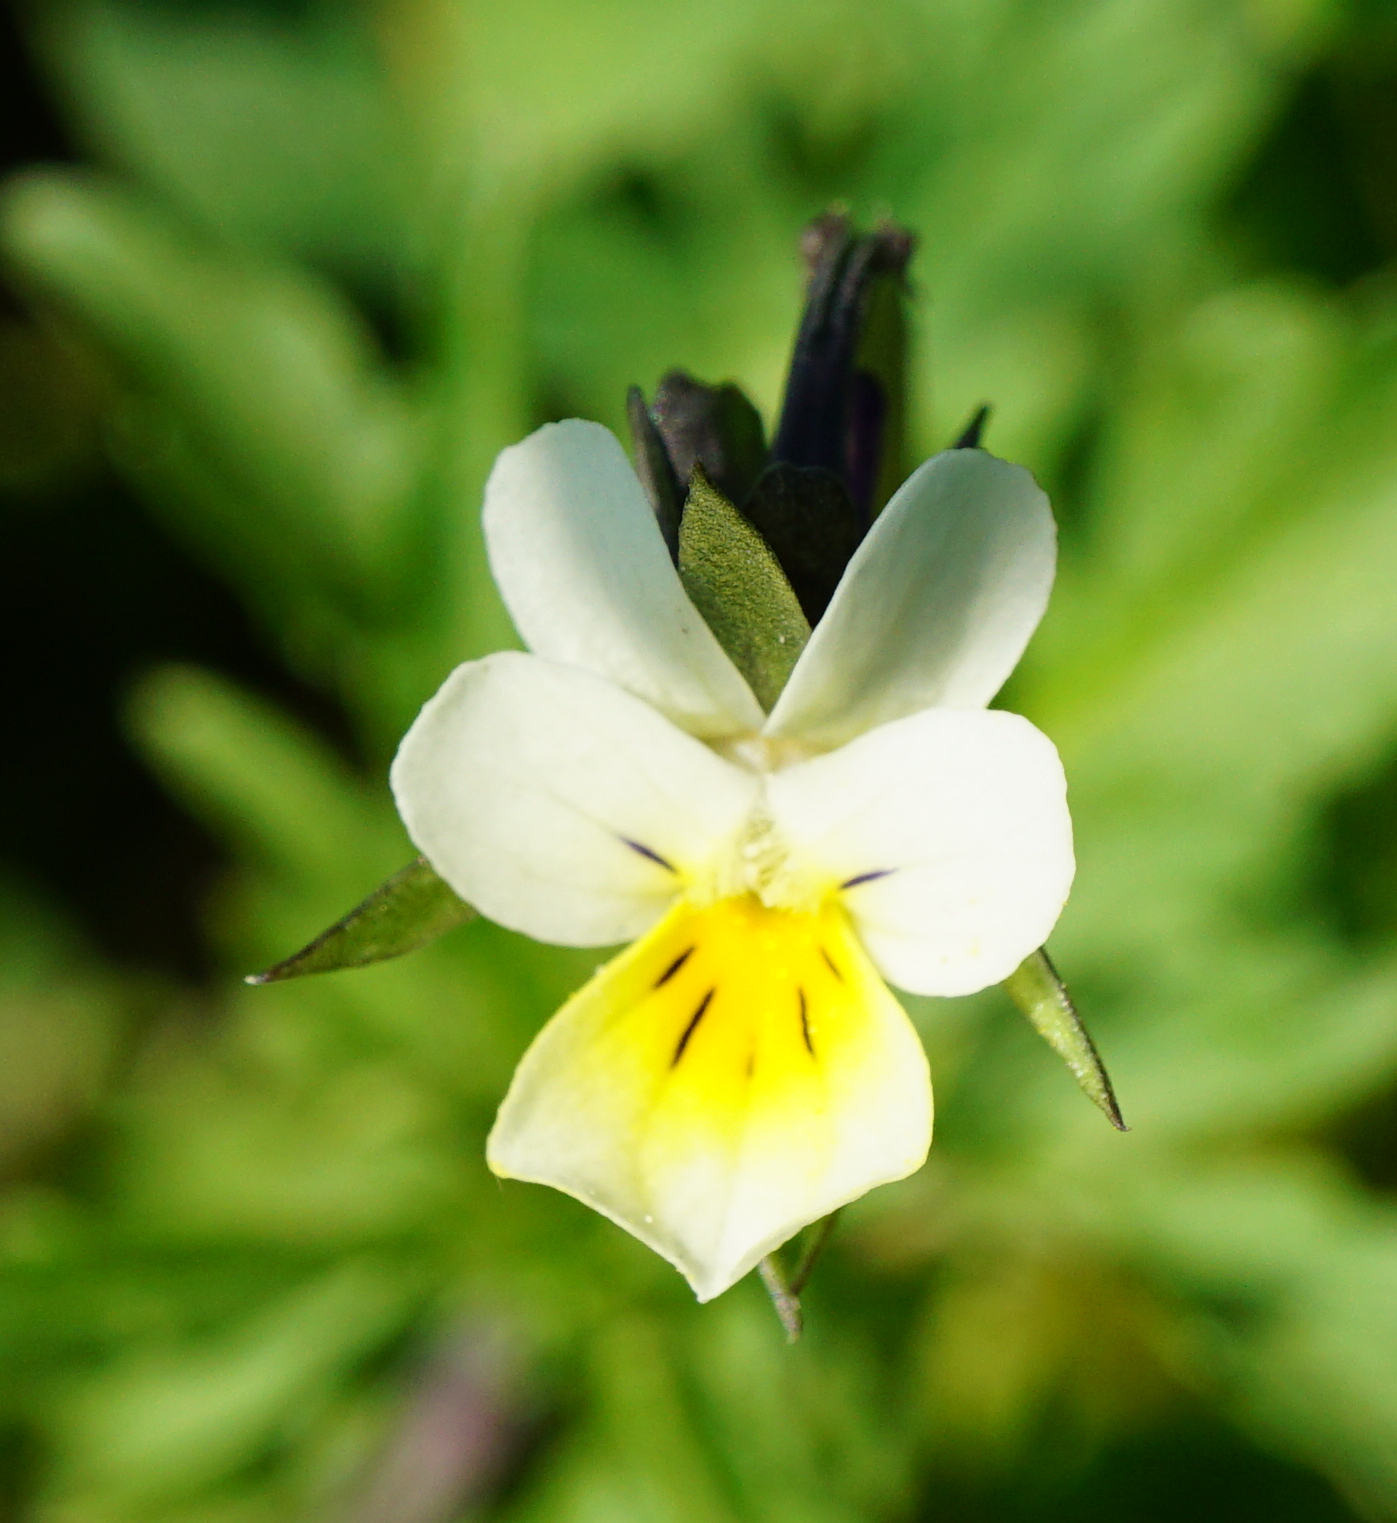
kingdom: Plantae
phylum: Tracheophyta
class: Magnoliopsida
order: Malpighiales
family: Violaceae
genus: Viola
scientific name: Viola arvensis
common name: Field pansy
